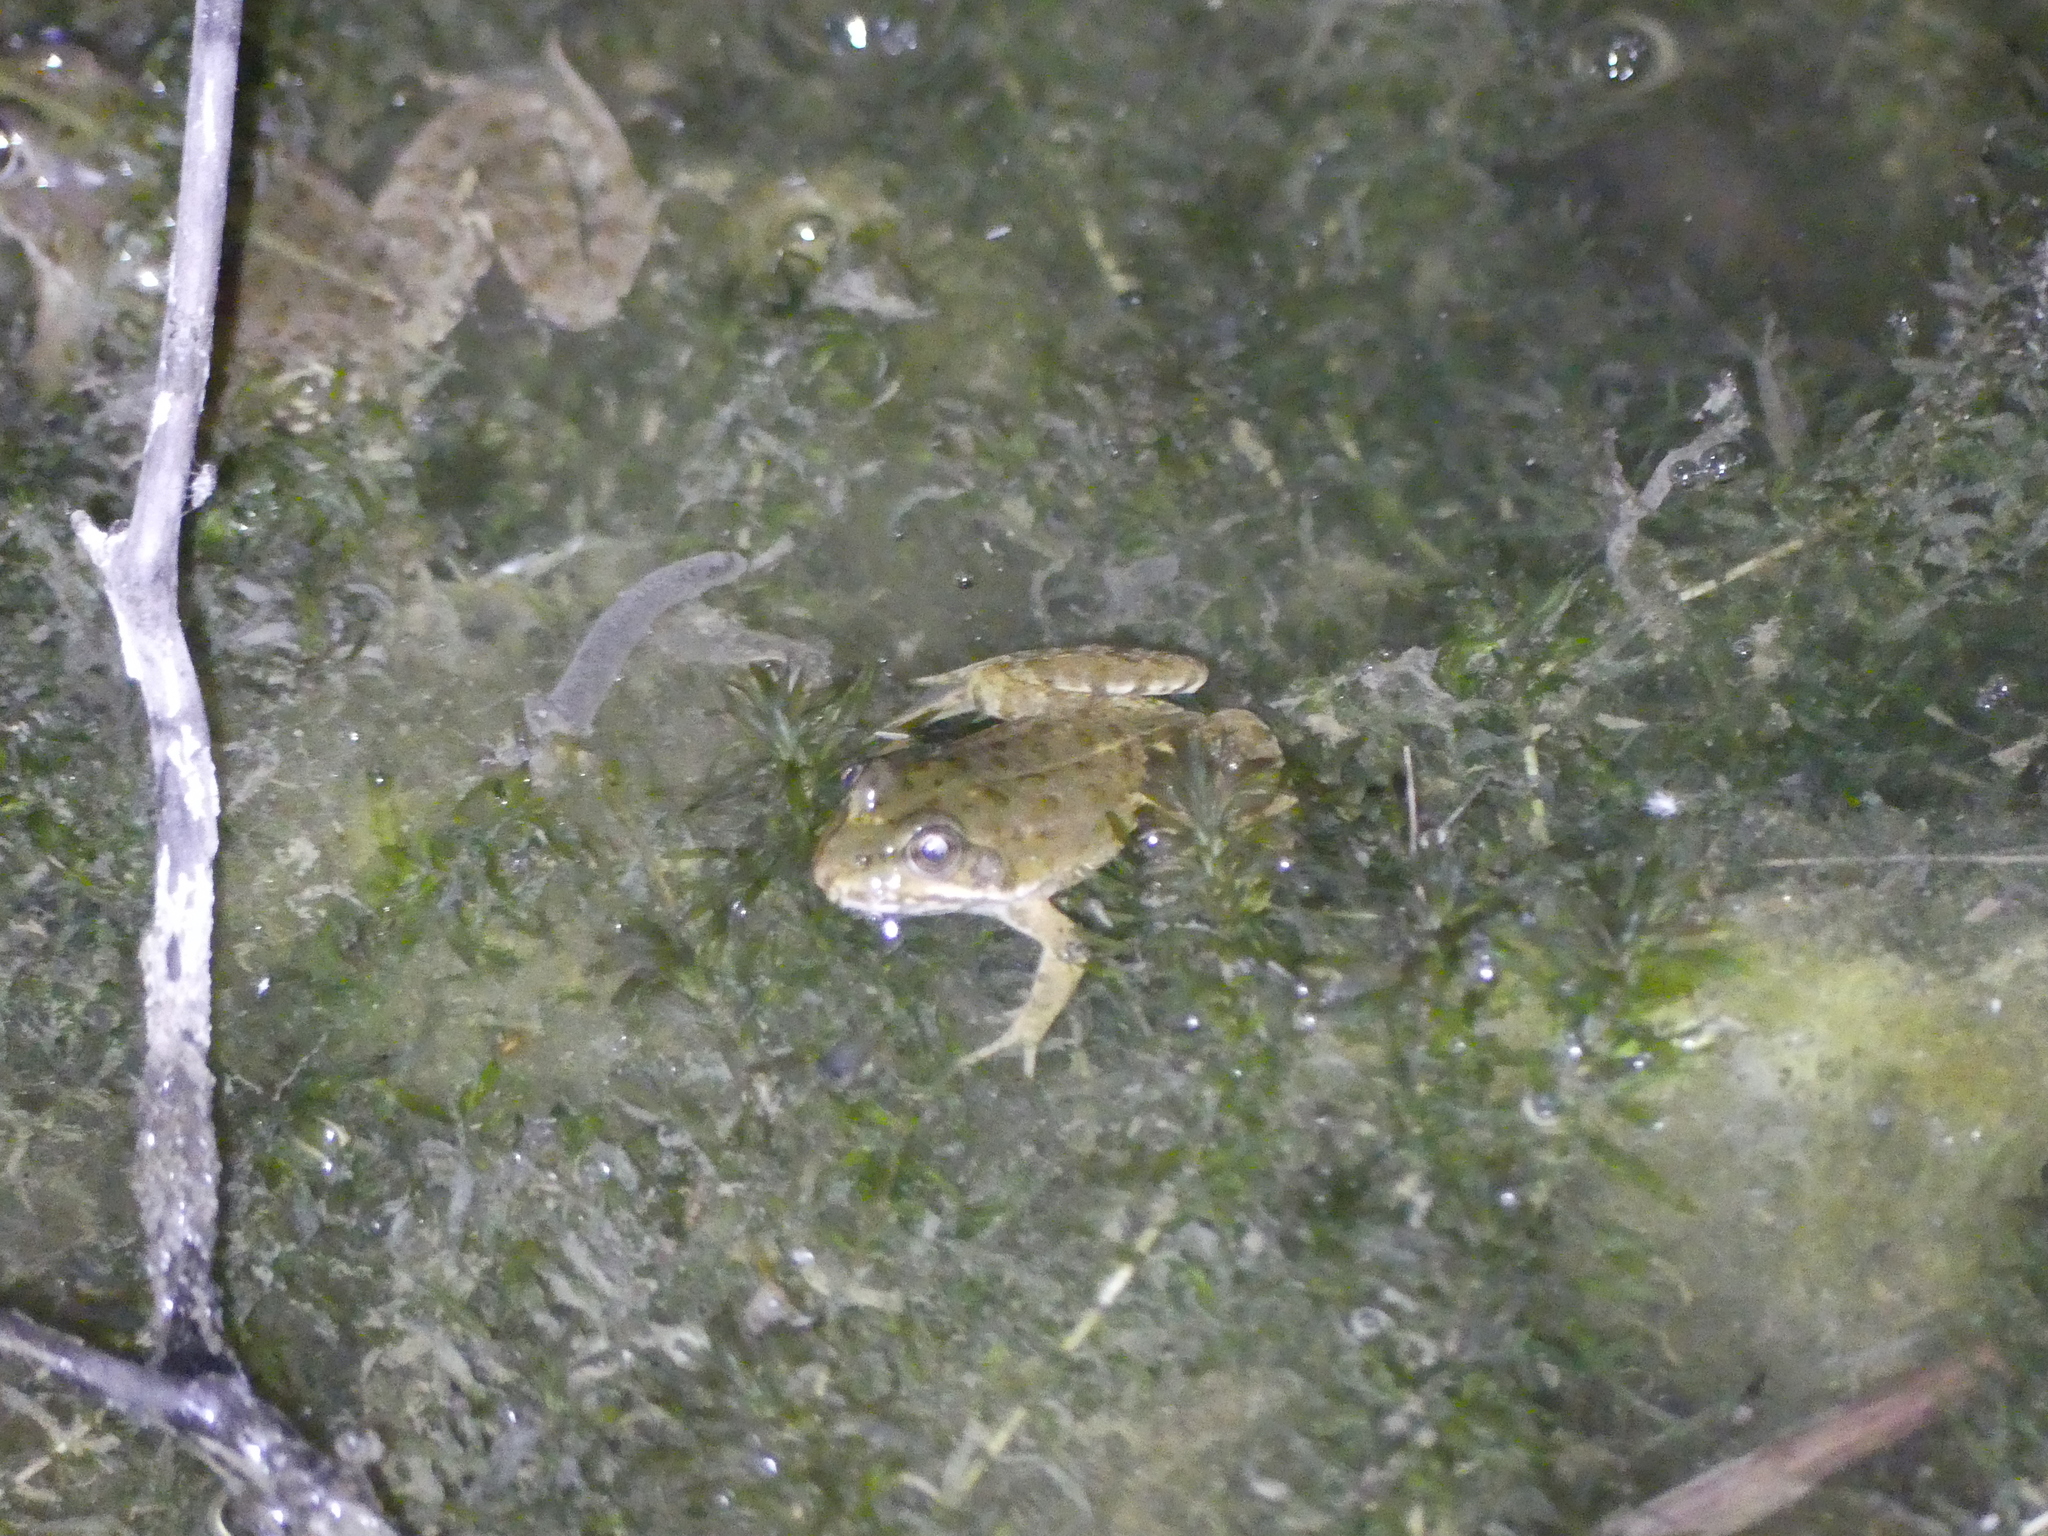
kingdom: Animalia
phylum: Chordata
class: Amphibia
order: Anura
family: Ranidae
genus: Pelophylax
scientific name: Pelophylax
